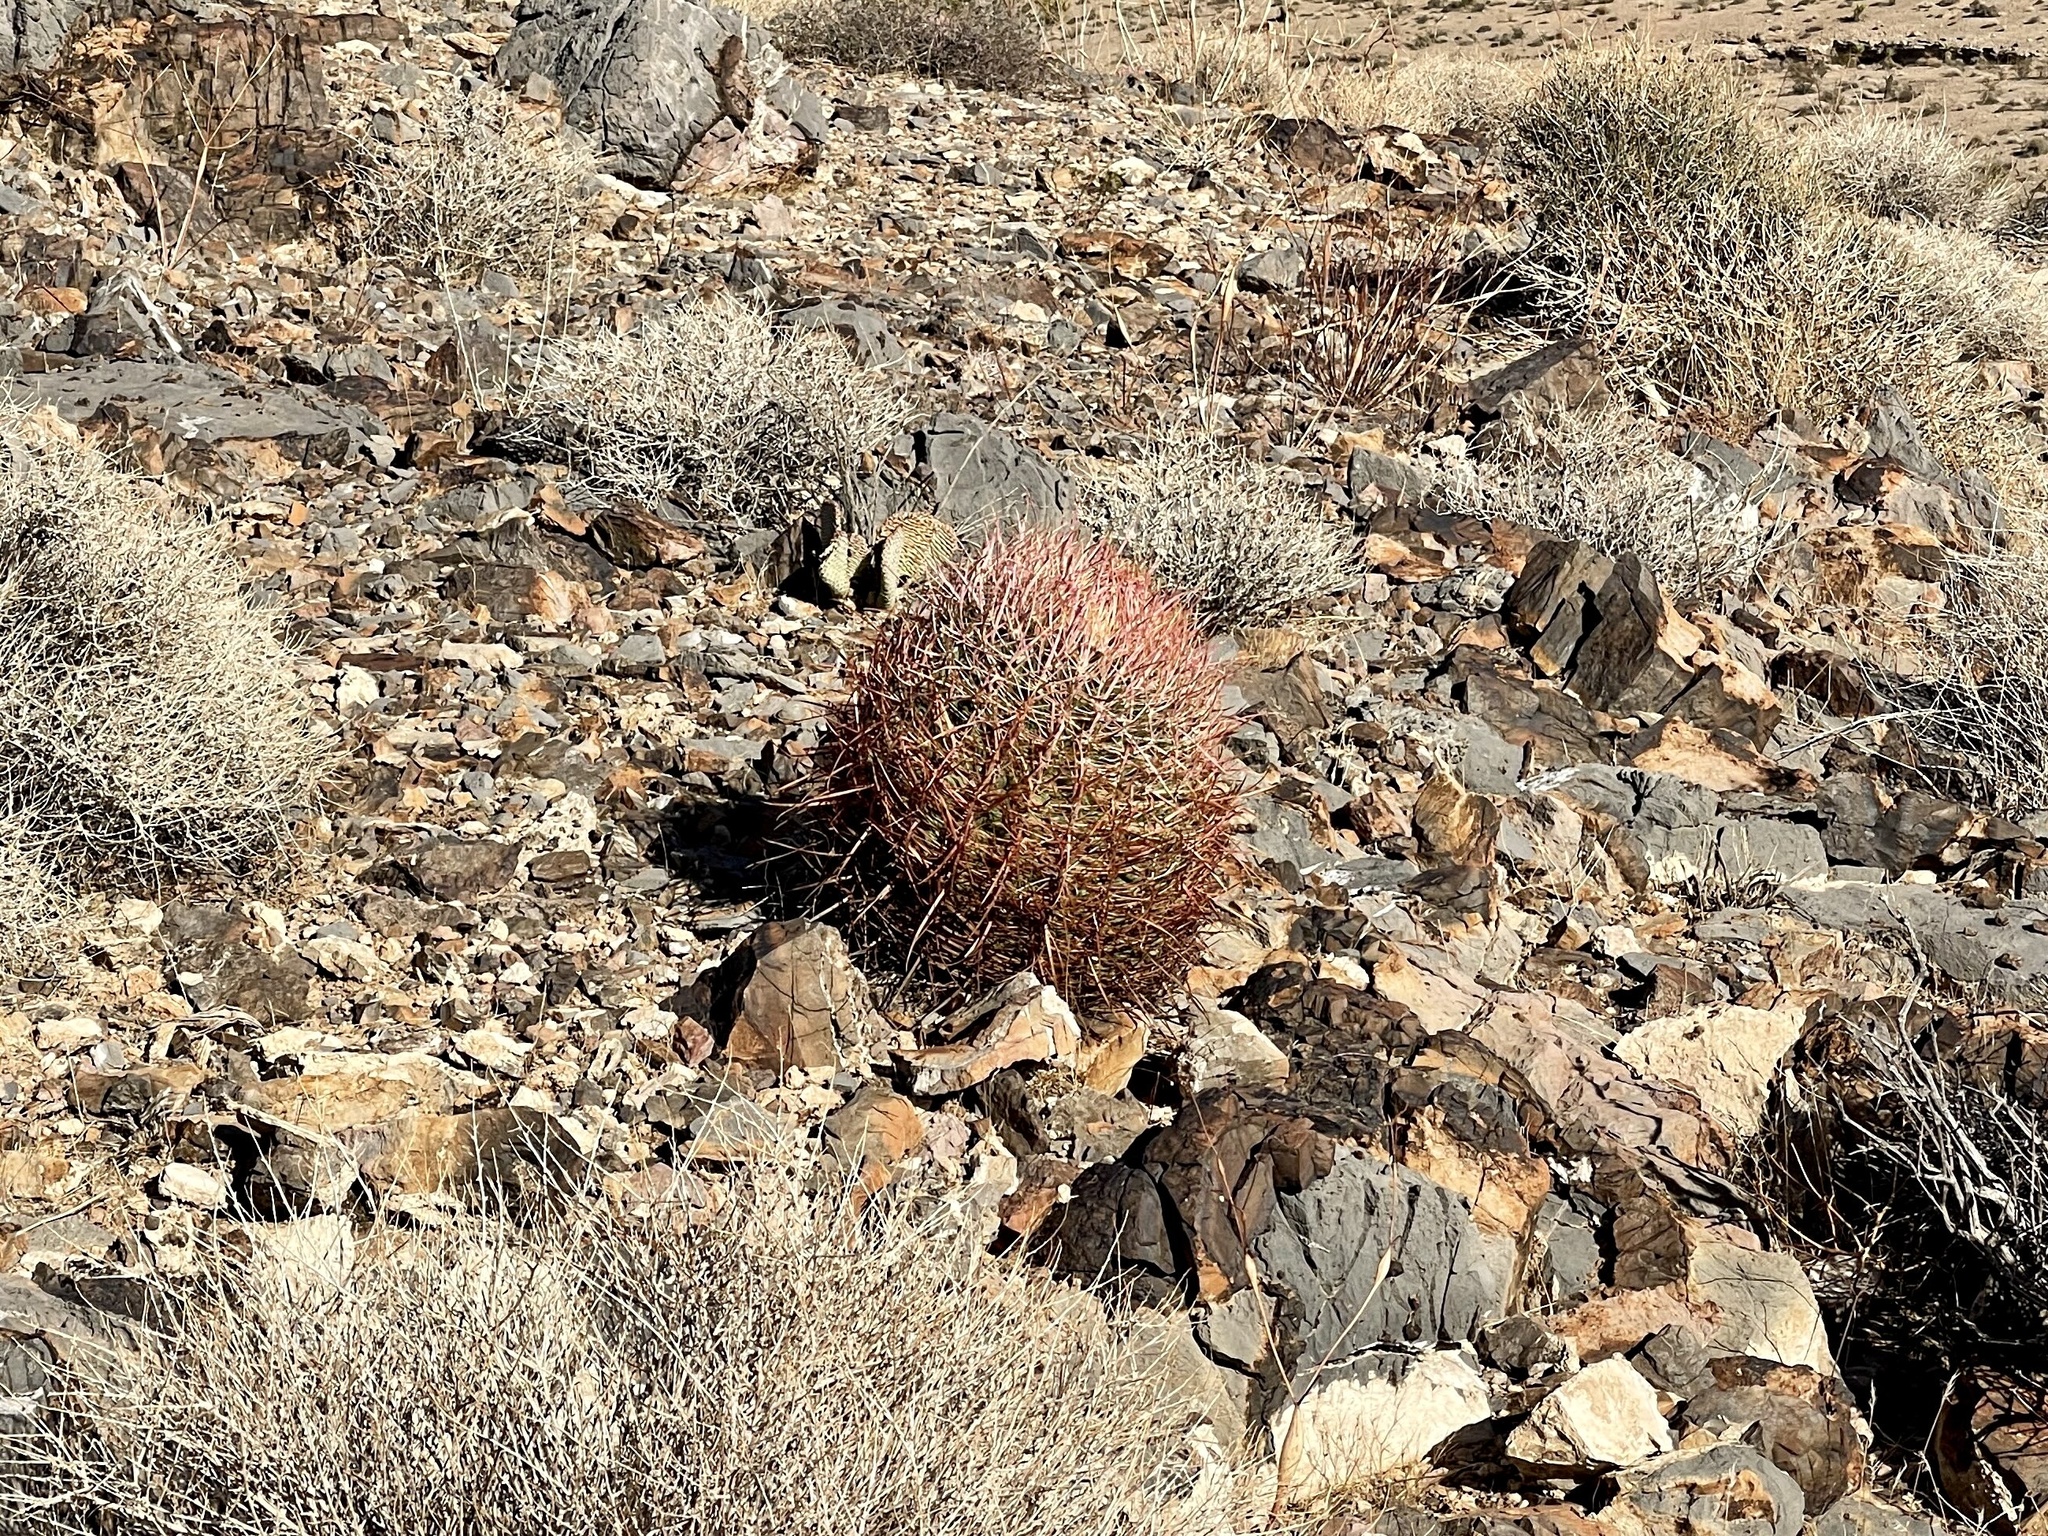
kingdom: Plantae
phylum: Tracheophyta
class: Magnoliopsida
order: Caryophyllales
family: Cactaceae
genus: Ferocactus
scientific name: Ferocactus cylindraceus
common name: California barrel cactus
